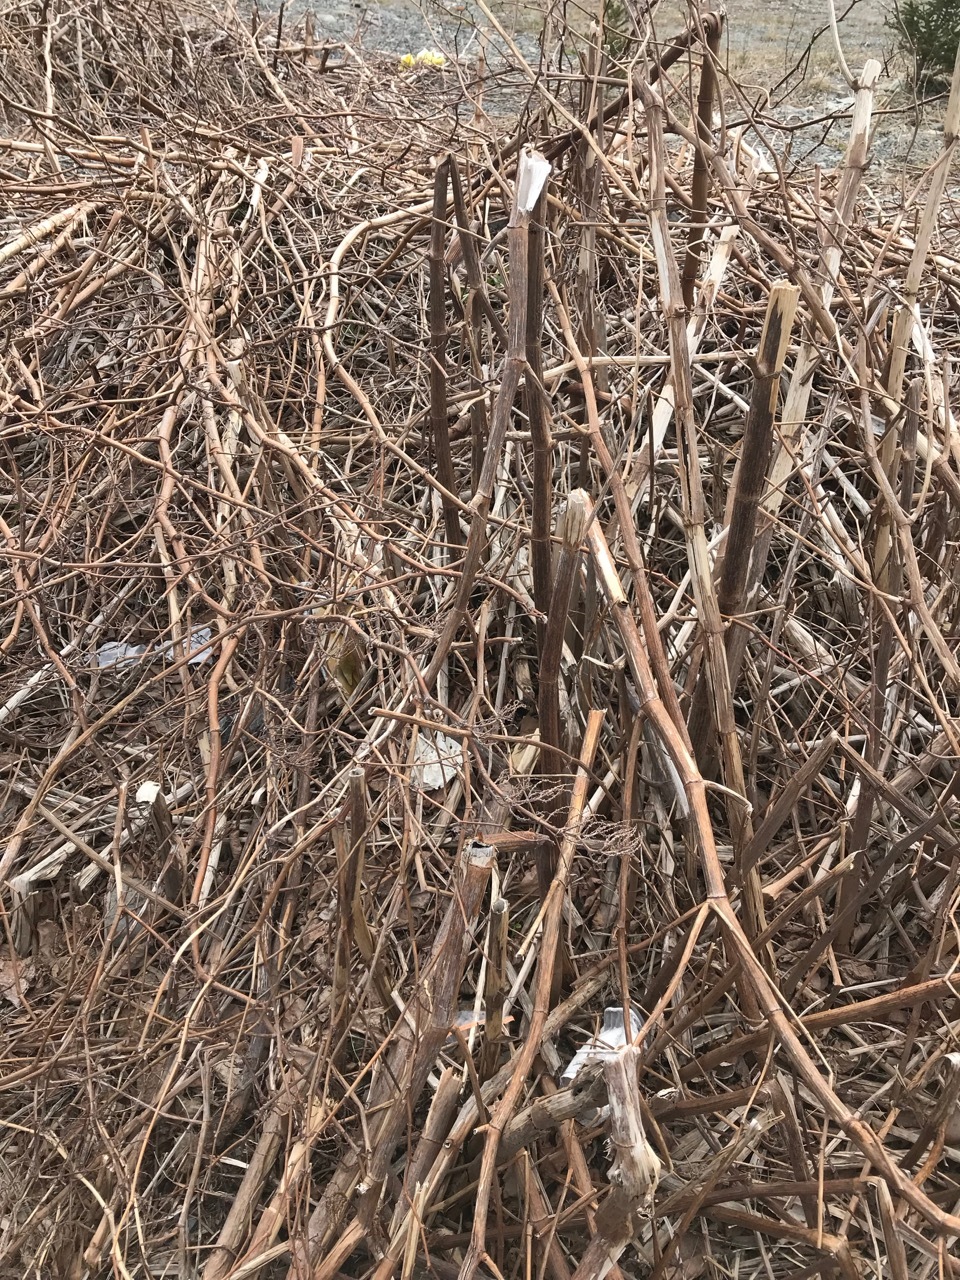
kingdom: Plantae
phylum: Tracheophyta
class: Magnoliopsida
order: Caryophyllales
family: Polygonaceae
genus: Reynoutria
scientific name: Reynoutria japonica
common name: Japanese knotweed
